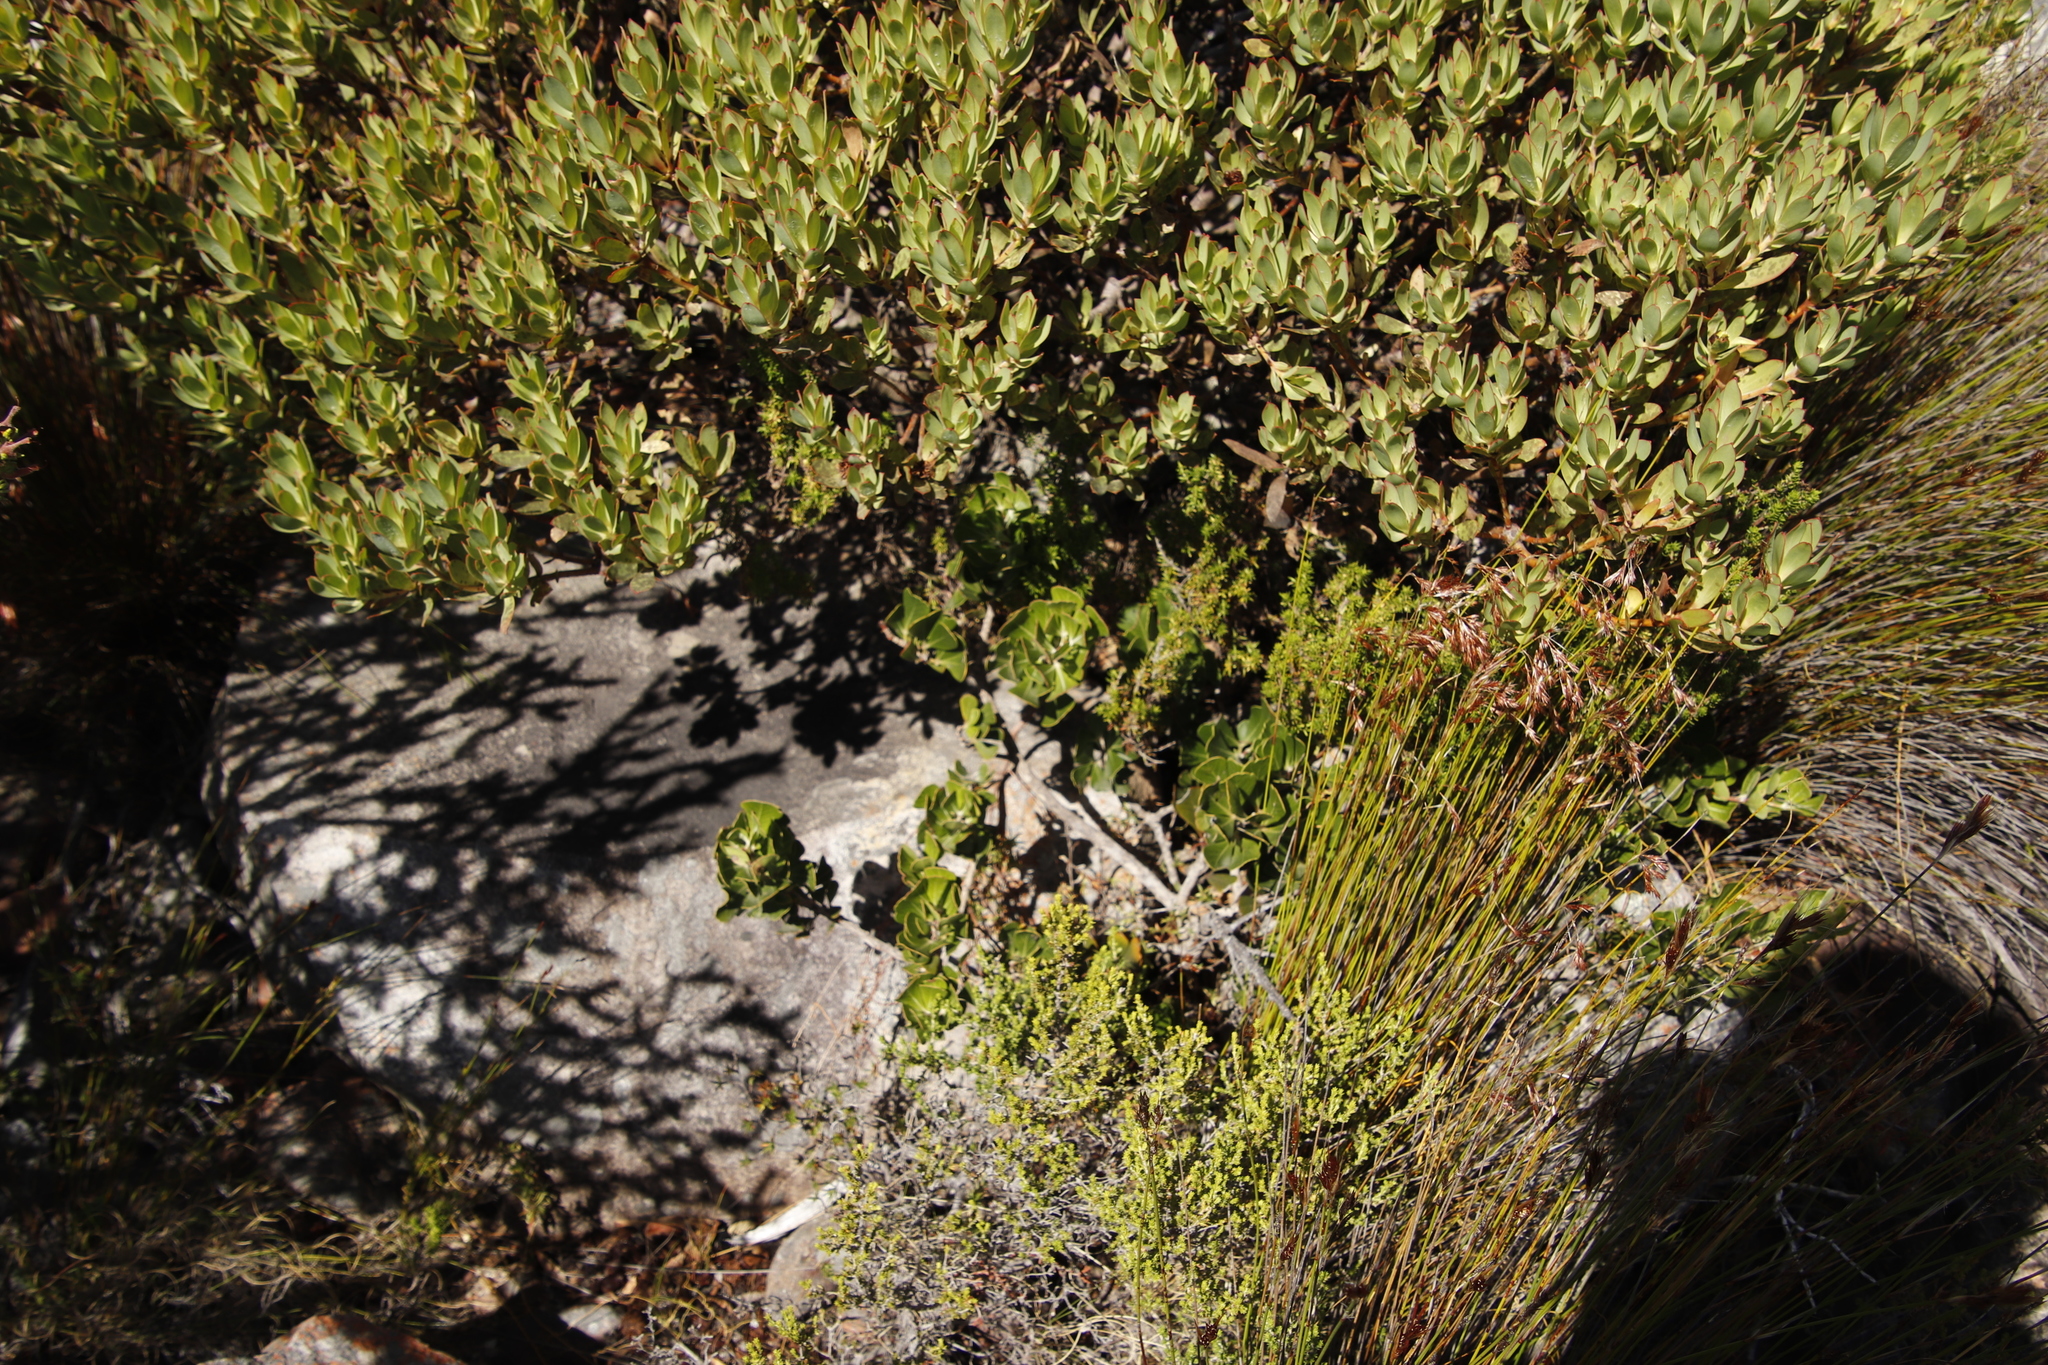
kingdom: Plantae
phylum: Tracheophyta
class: Magnoliopsida
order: Sapindales
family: Anacardiaceae
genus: Searsia
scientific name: Searsia scytophylla
